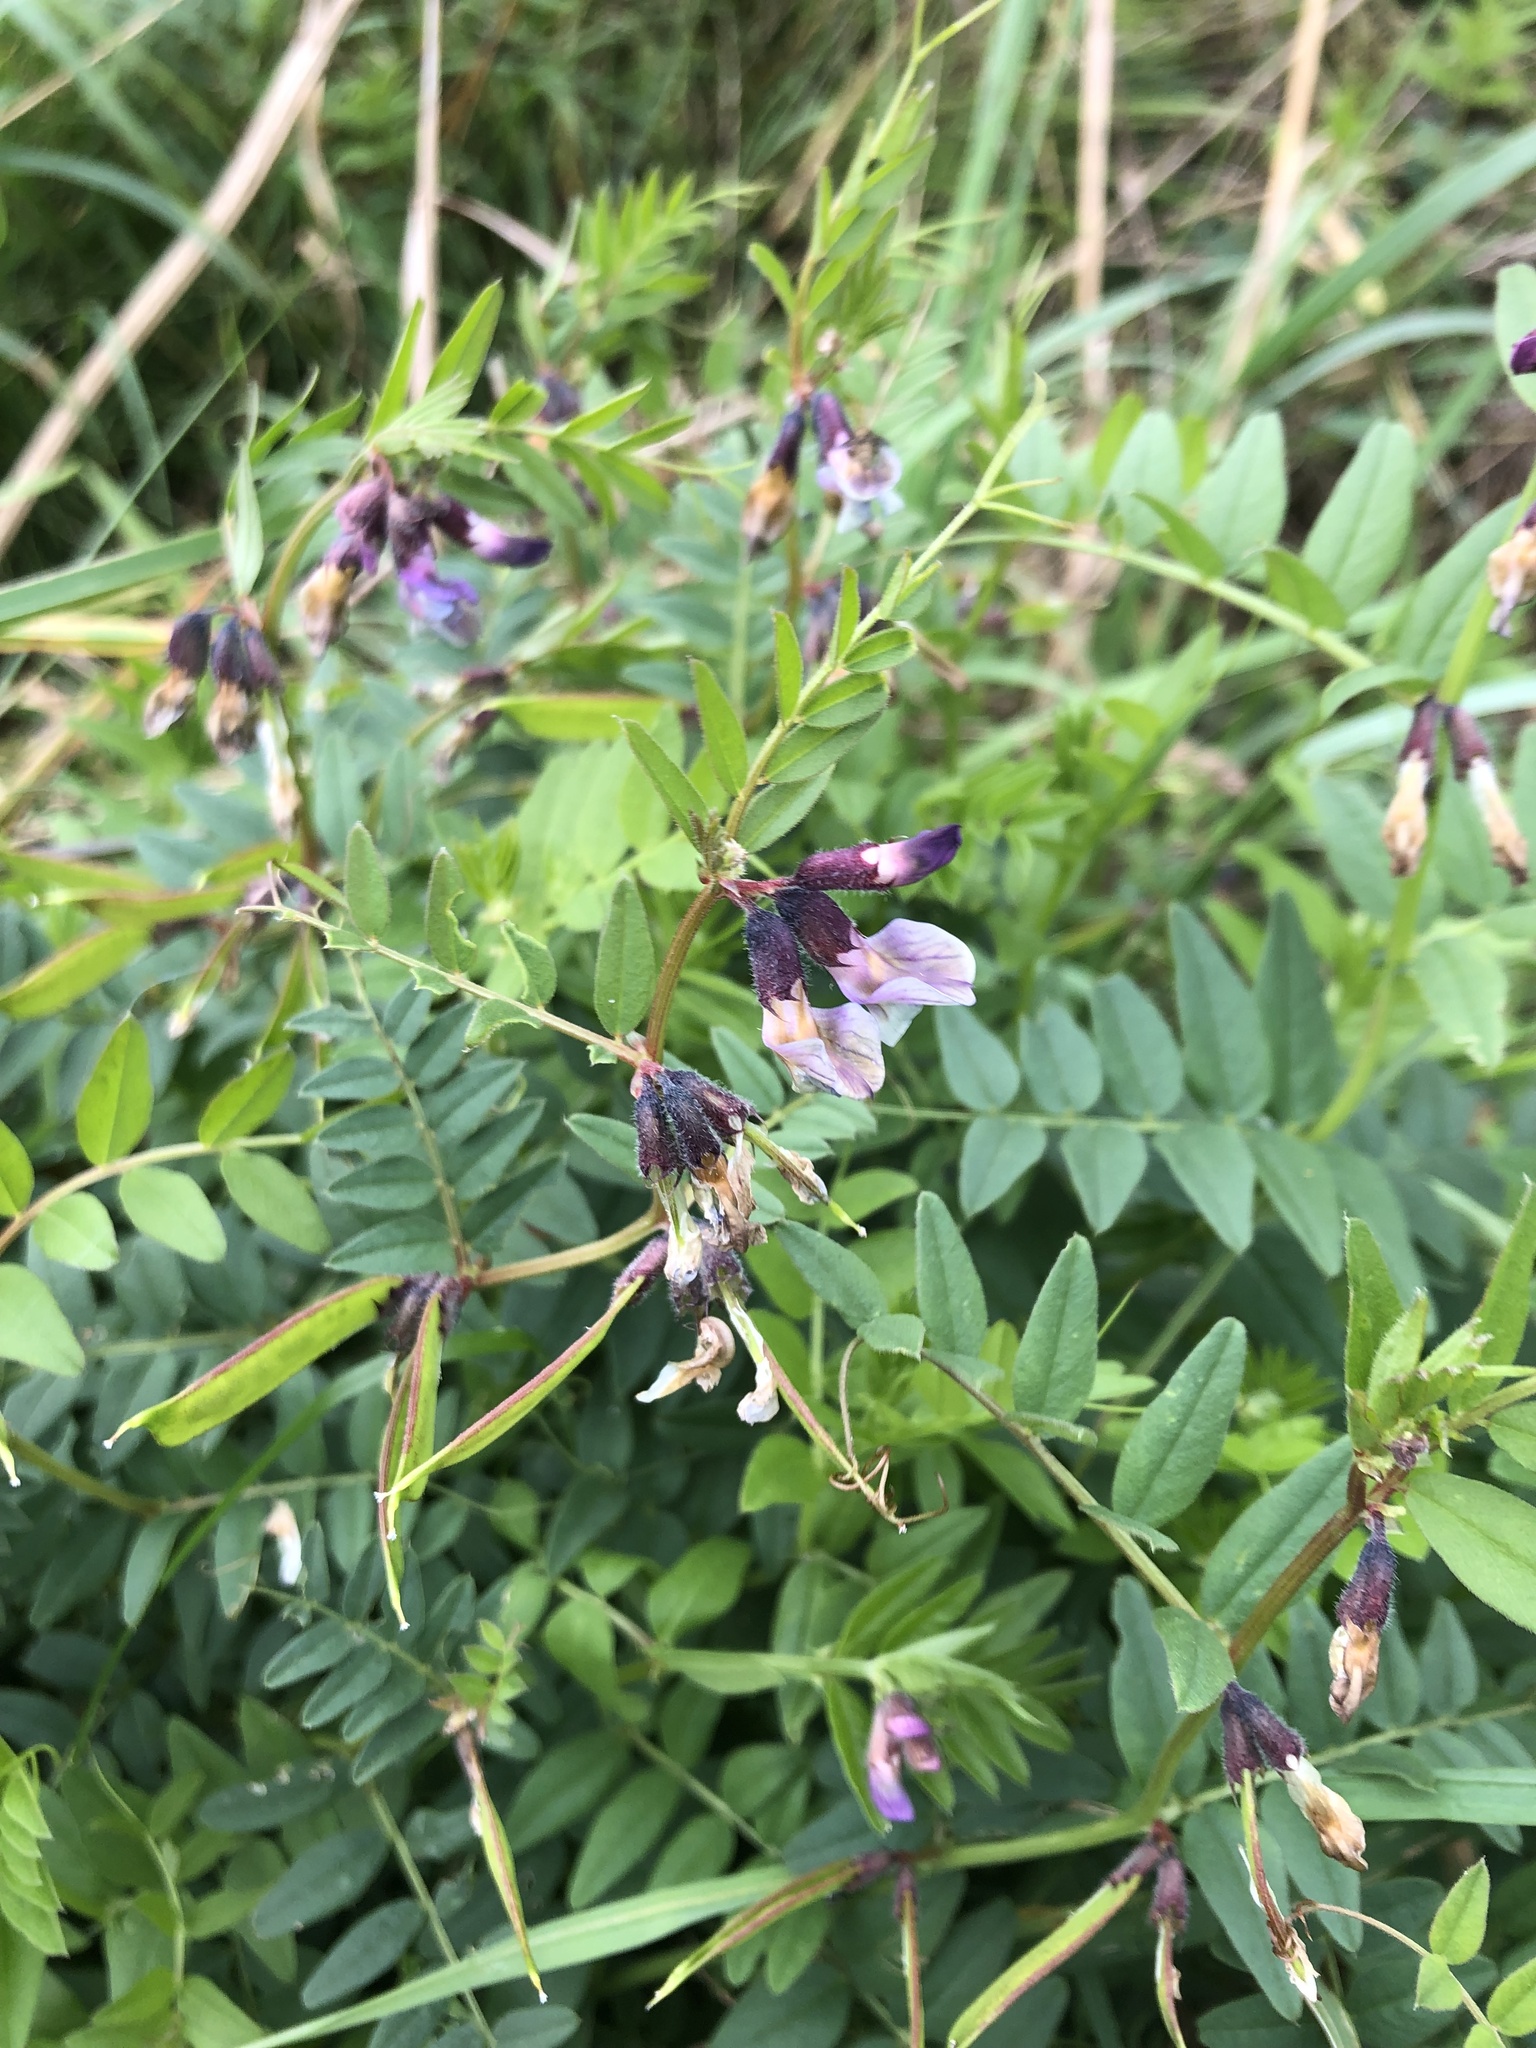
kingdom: Plantae
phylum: Tracheophyta
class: Magnoliopsida
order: Fabales
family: Fabaceae
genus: Vicia
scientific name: Vicia sepium
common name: Bush vetch
